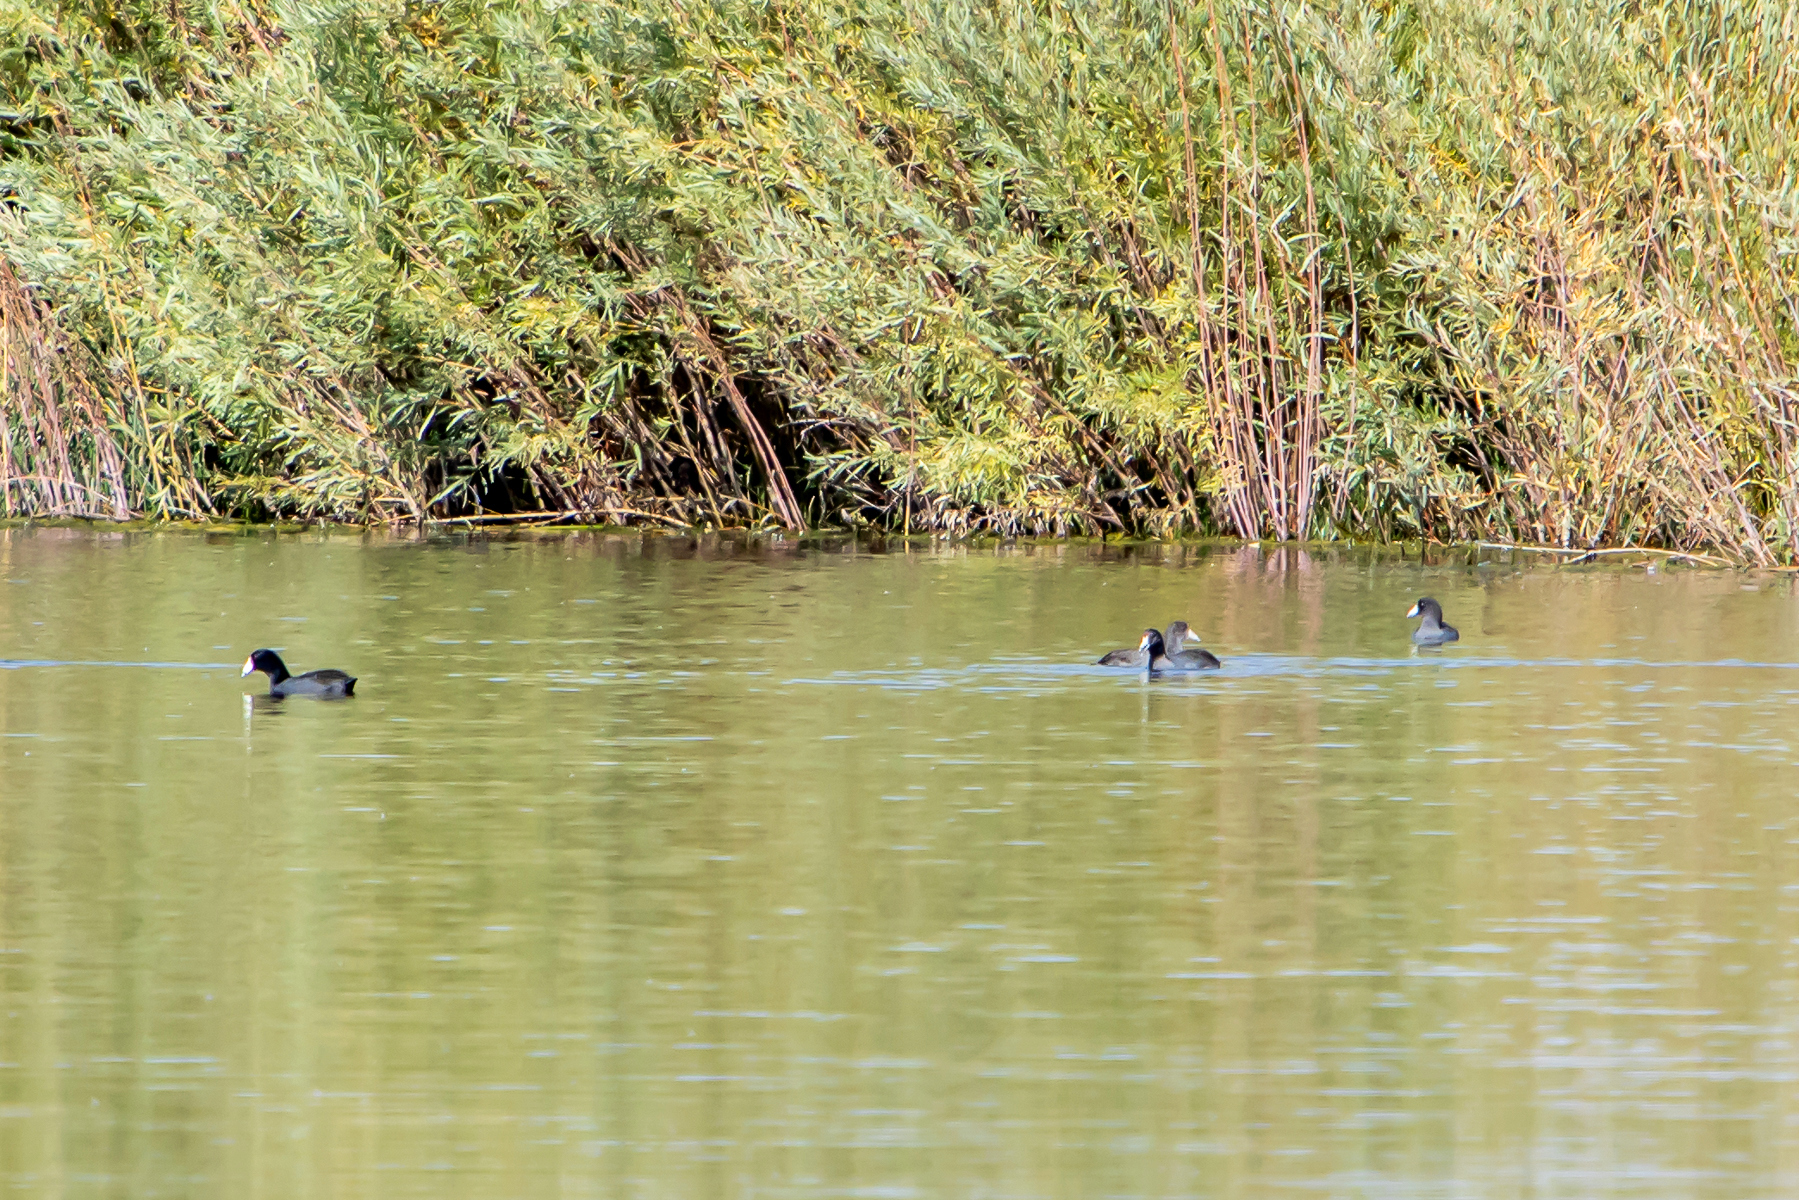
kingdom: Animalia
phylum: Chordata
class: Aves
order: Gruiformes
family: Rallidae
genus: Fulica
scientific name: Fulica americana
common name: American coot
